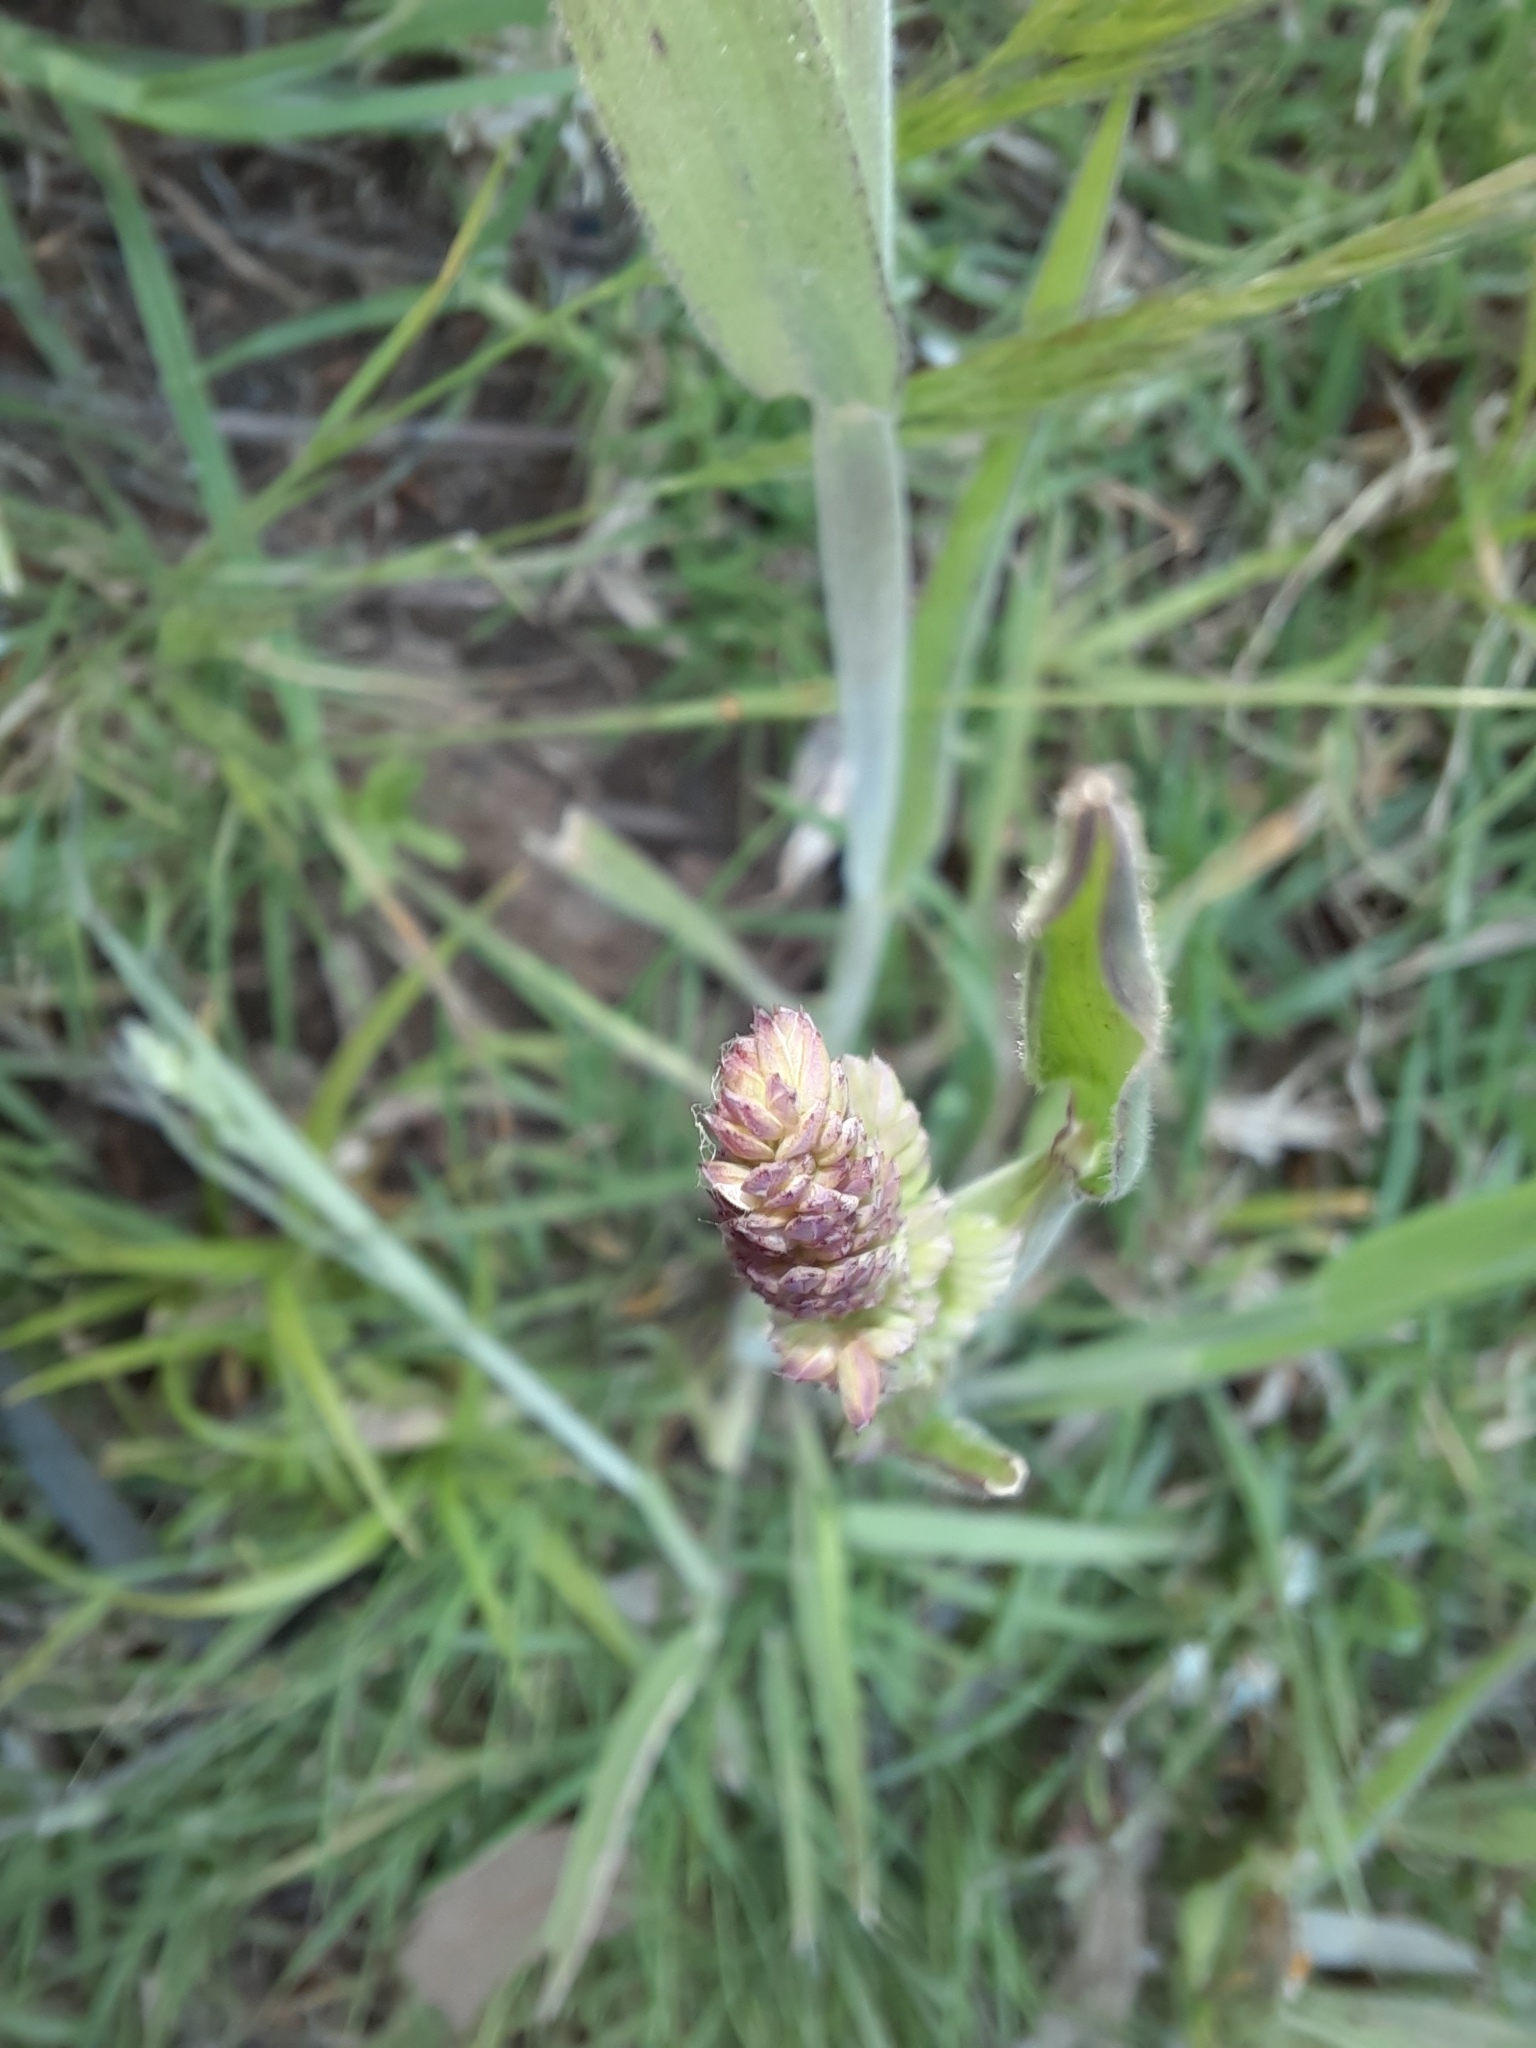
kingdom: Plantae
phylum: Tracheophyta
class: Liliopsida
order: Poales
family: Poaceae
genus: Holcus
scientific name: Holcus lanatus
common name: Yorkshire-fog
